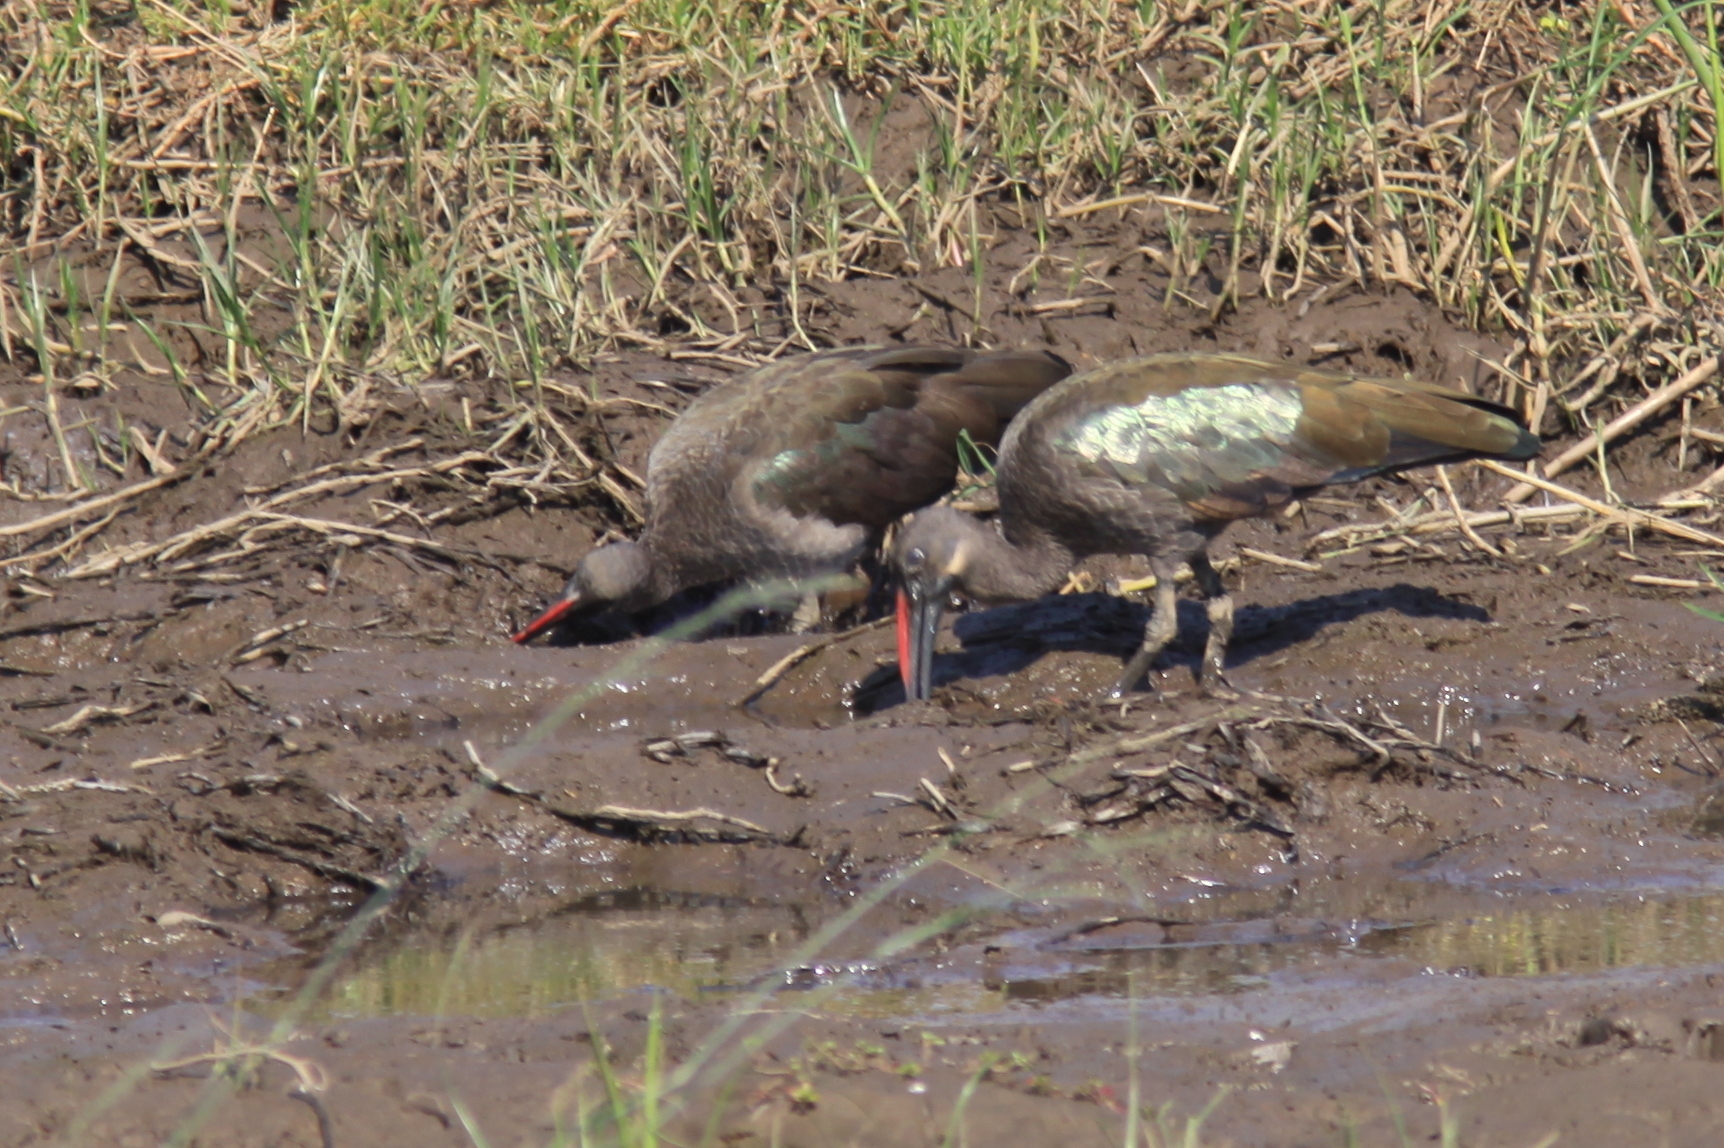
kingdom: Animalia
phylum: Chordata
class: Aves
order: Pelecaniformes
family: Threskiornithidae
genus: Bostrychia
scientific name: Bostrychia hagedash
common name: Hadada ibis
